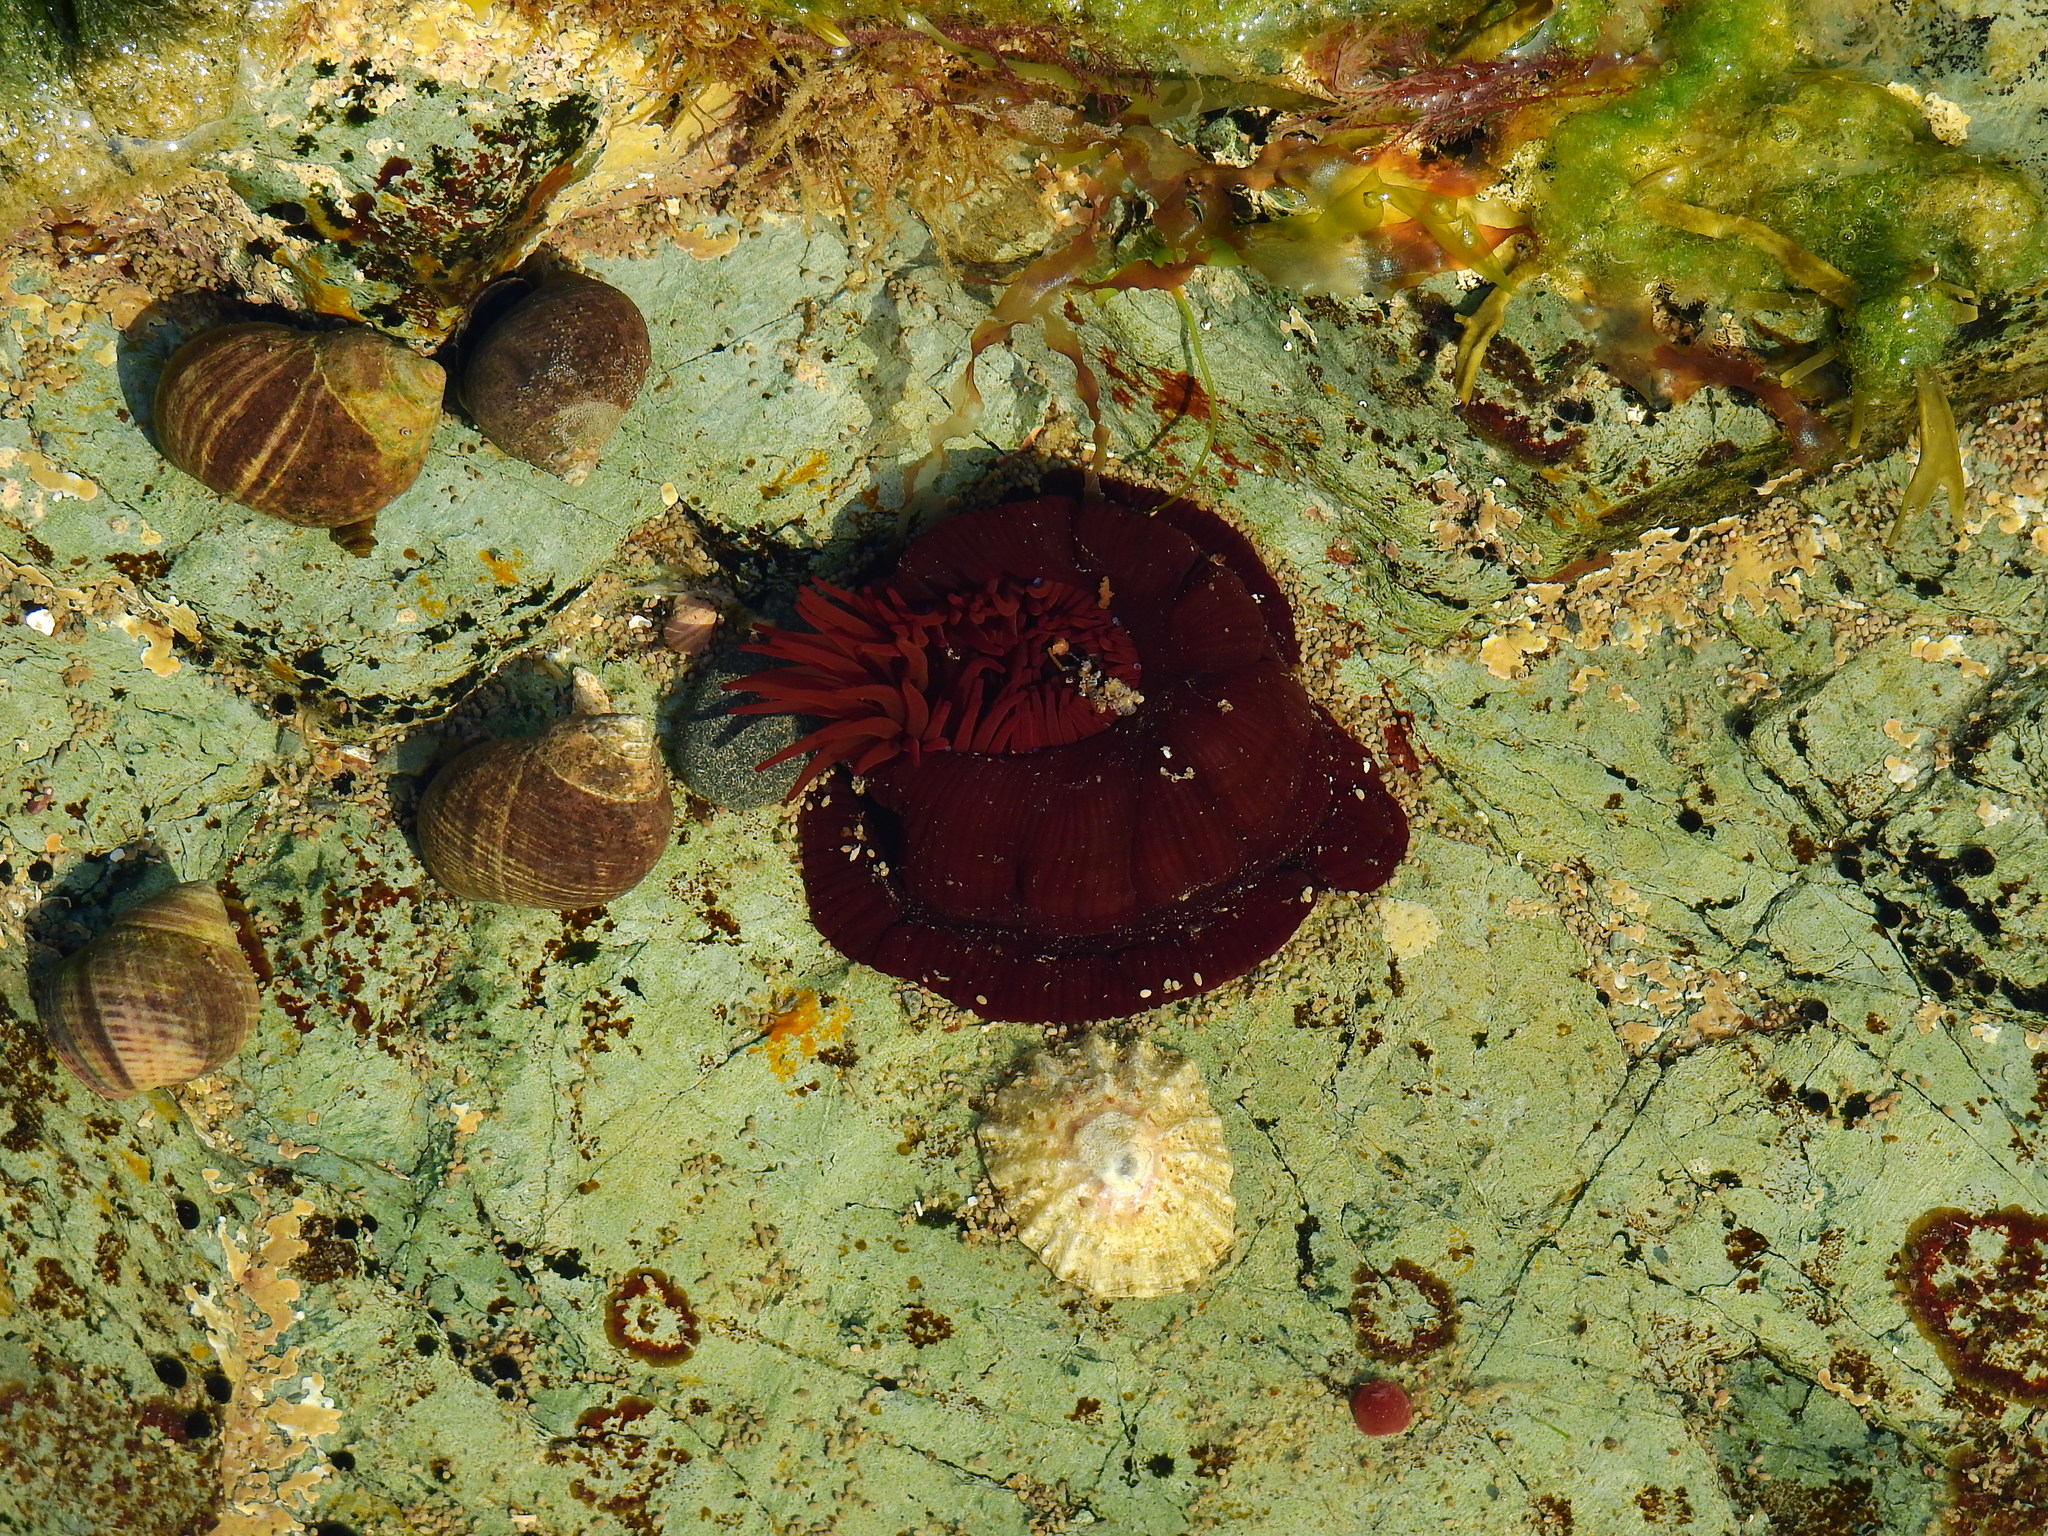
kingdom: Animalia
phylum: Cnidaria
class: Anthozoa
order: Actiniaria
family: Actiniidae
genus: Actinia
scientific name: Actinia equina
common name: Beadlet anemone
